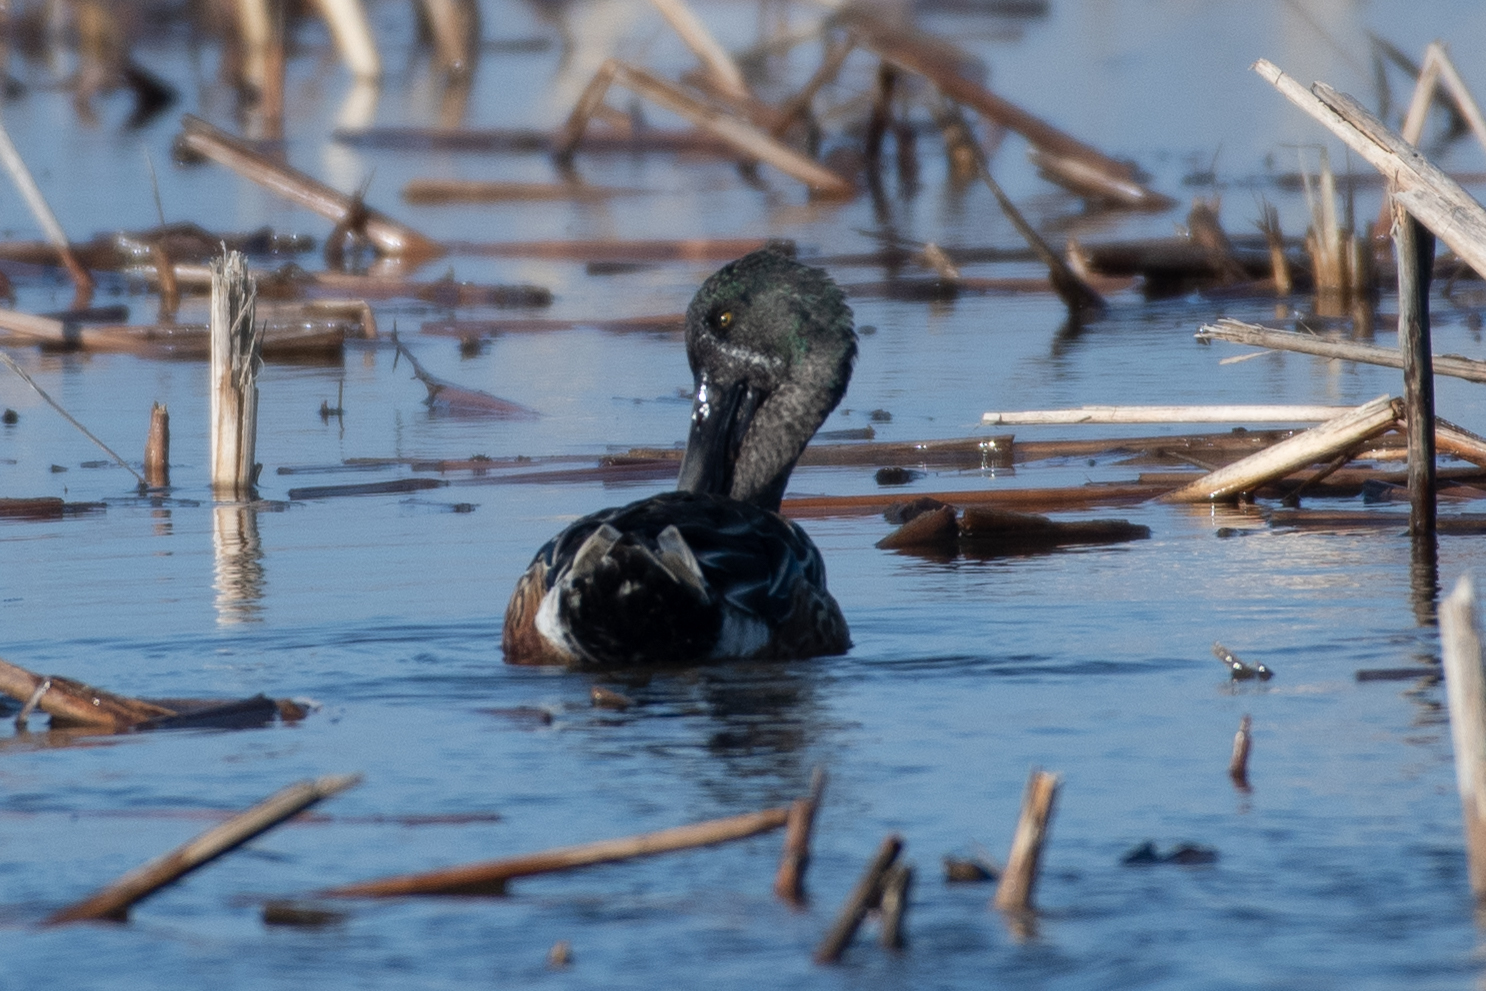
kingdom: Animalia
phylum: Chordata
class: Aves
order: Anseriformes
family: Anatidae
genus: Spatula
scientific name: Spatula clypeata
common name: Northern shoveler
